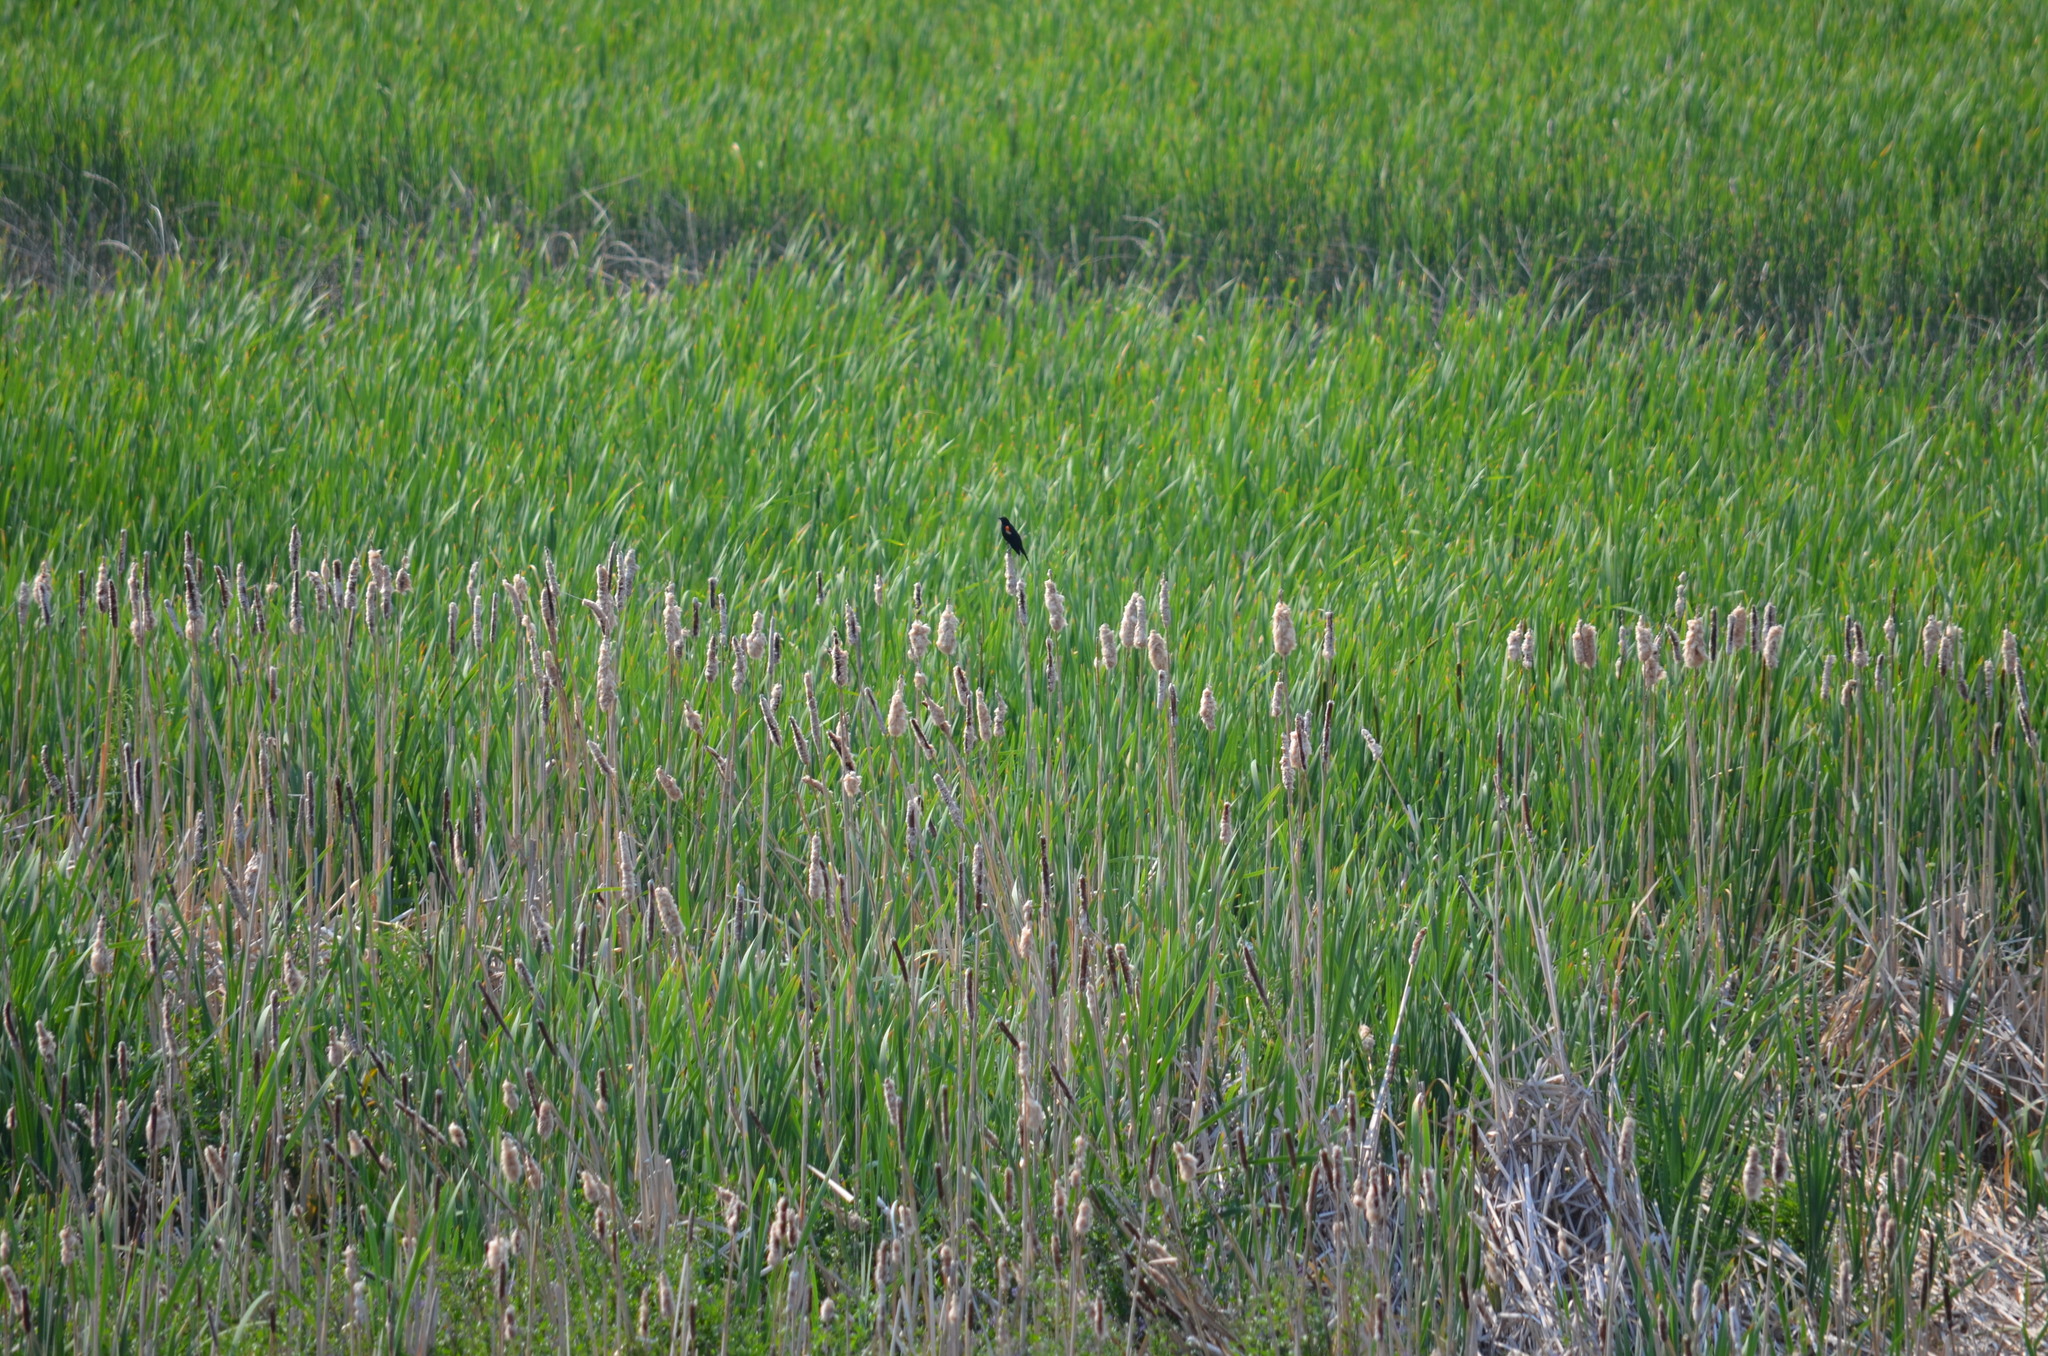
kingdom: Animalia
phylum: Chordata
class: Aves
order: Passeriformes
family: Icteridae
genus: Agelaius
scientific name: Agelaius phoeniceus
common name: Red-winged blackbird
